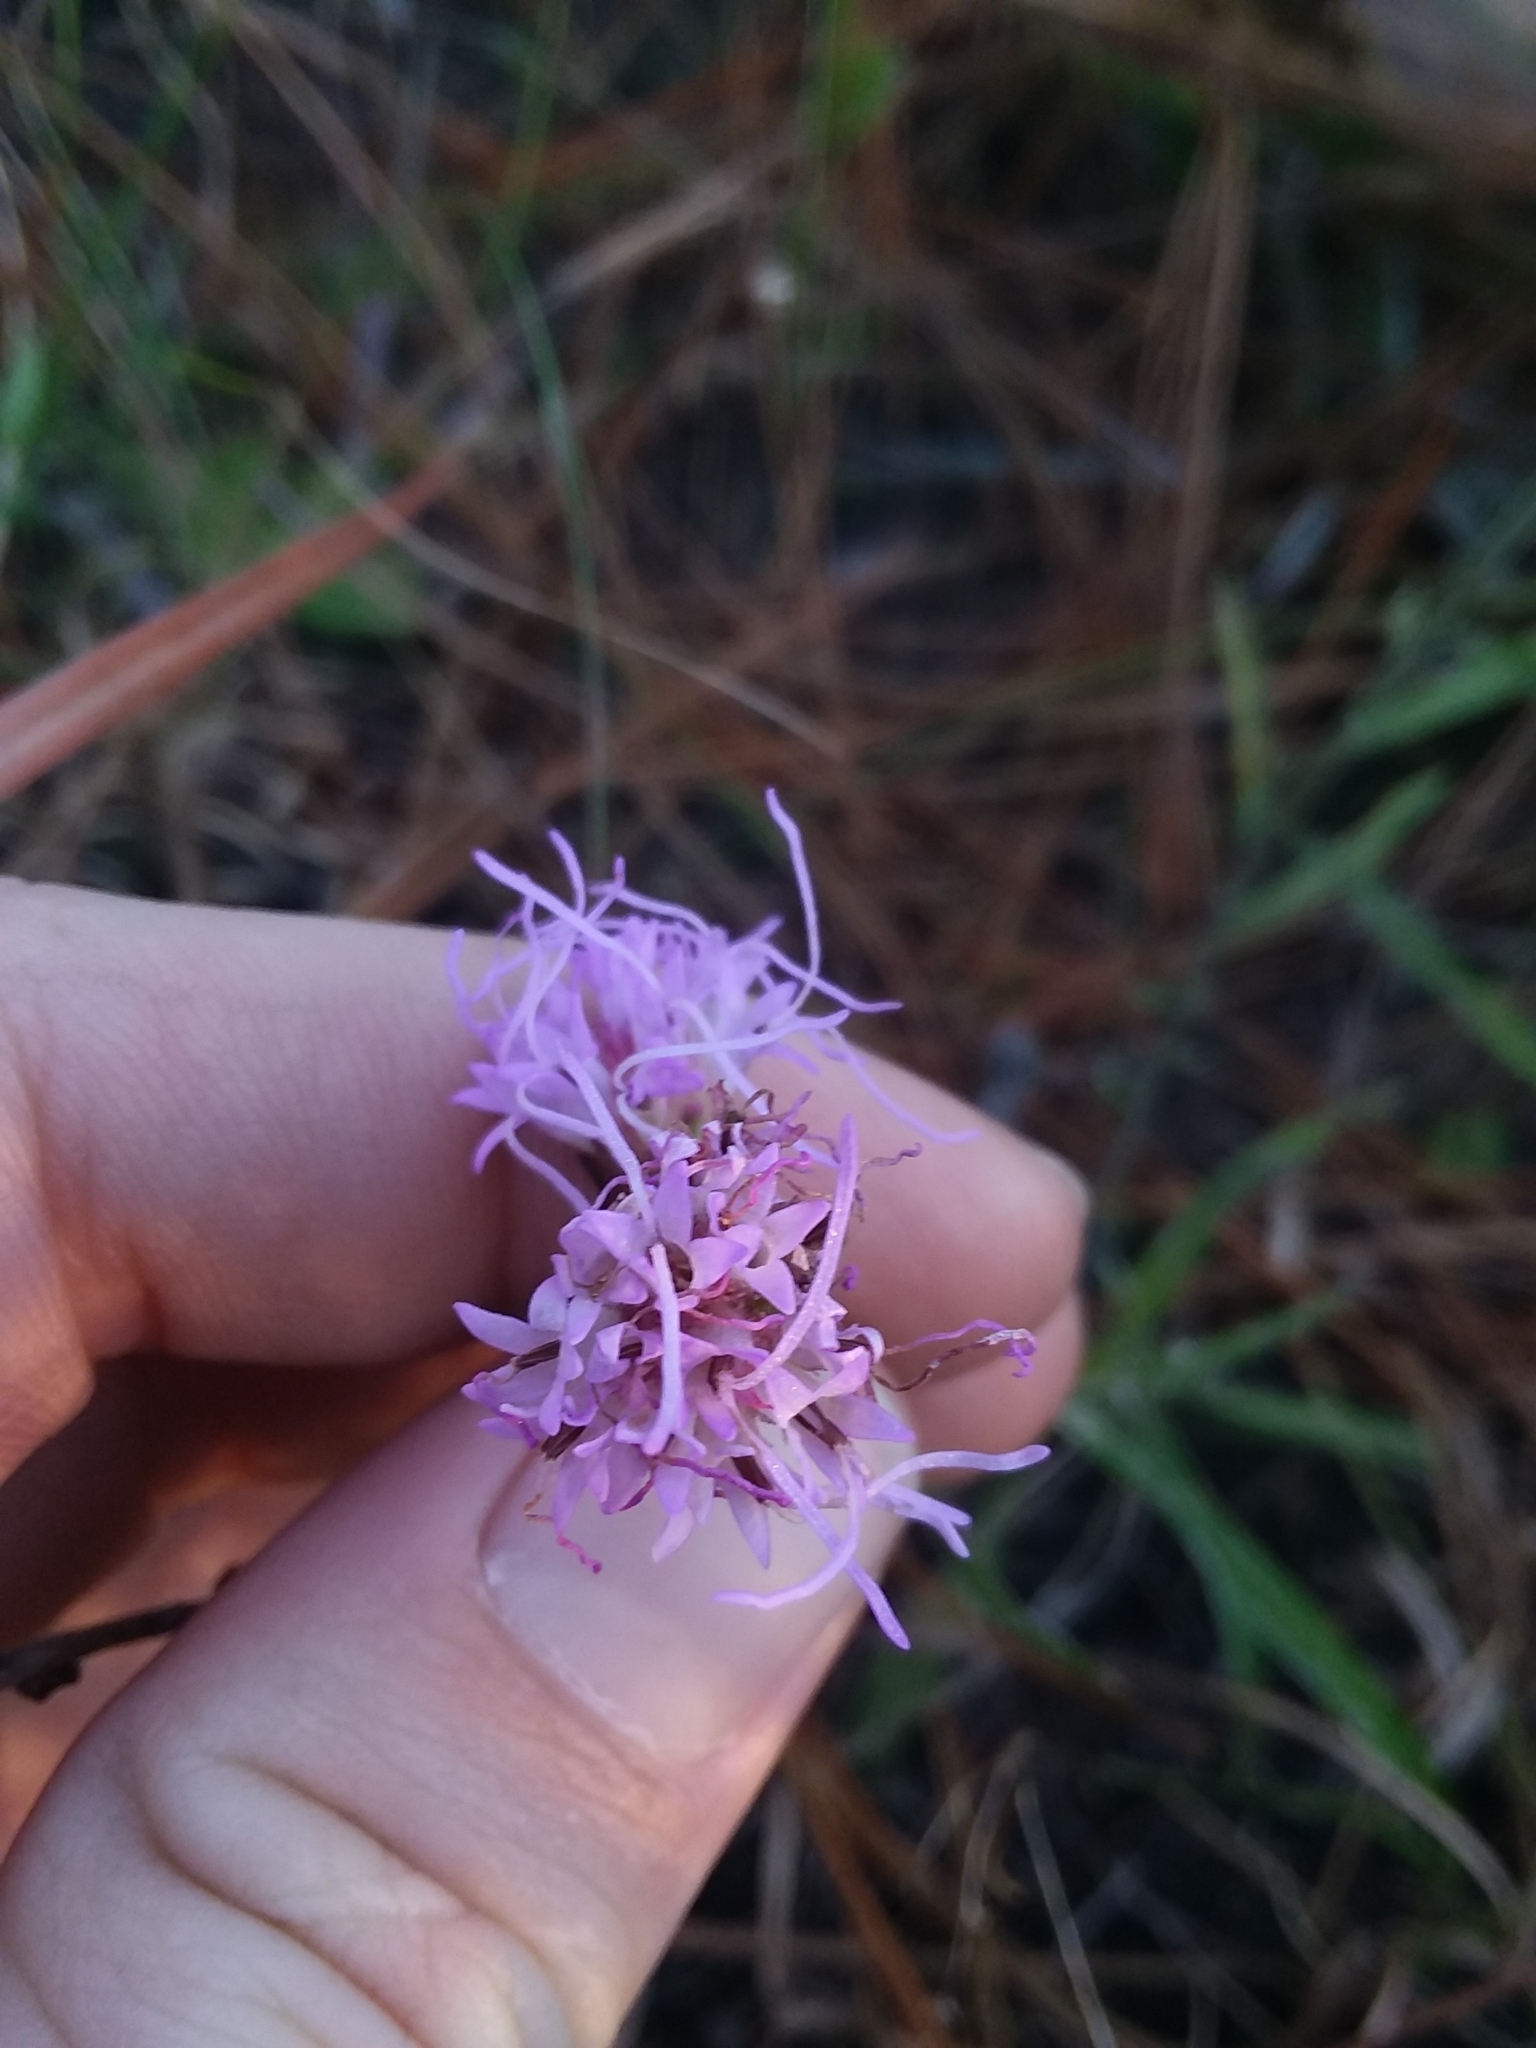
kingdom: Plantae
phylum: Tracheophyta
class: Magnoliopsida
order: Asterales
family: Asteraceae
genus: Liatris
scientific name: Liatris squarrulosa
